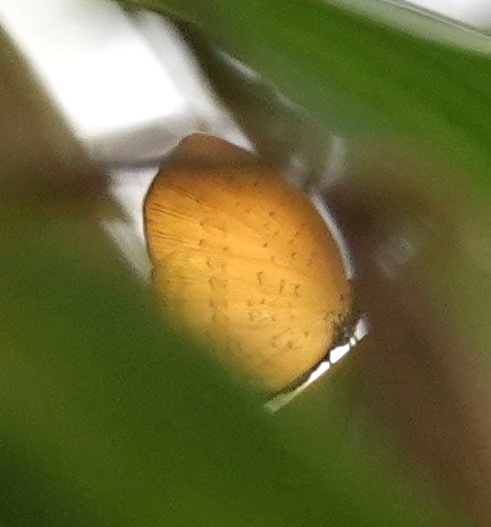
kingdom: Animalia
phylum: Arthropoda
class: Insecta
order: Lepidoptera
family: Lycaenidae
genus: Yasoda
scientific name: Yasoda pita
